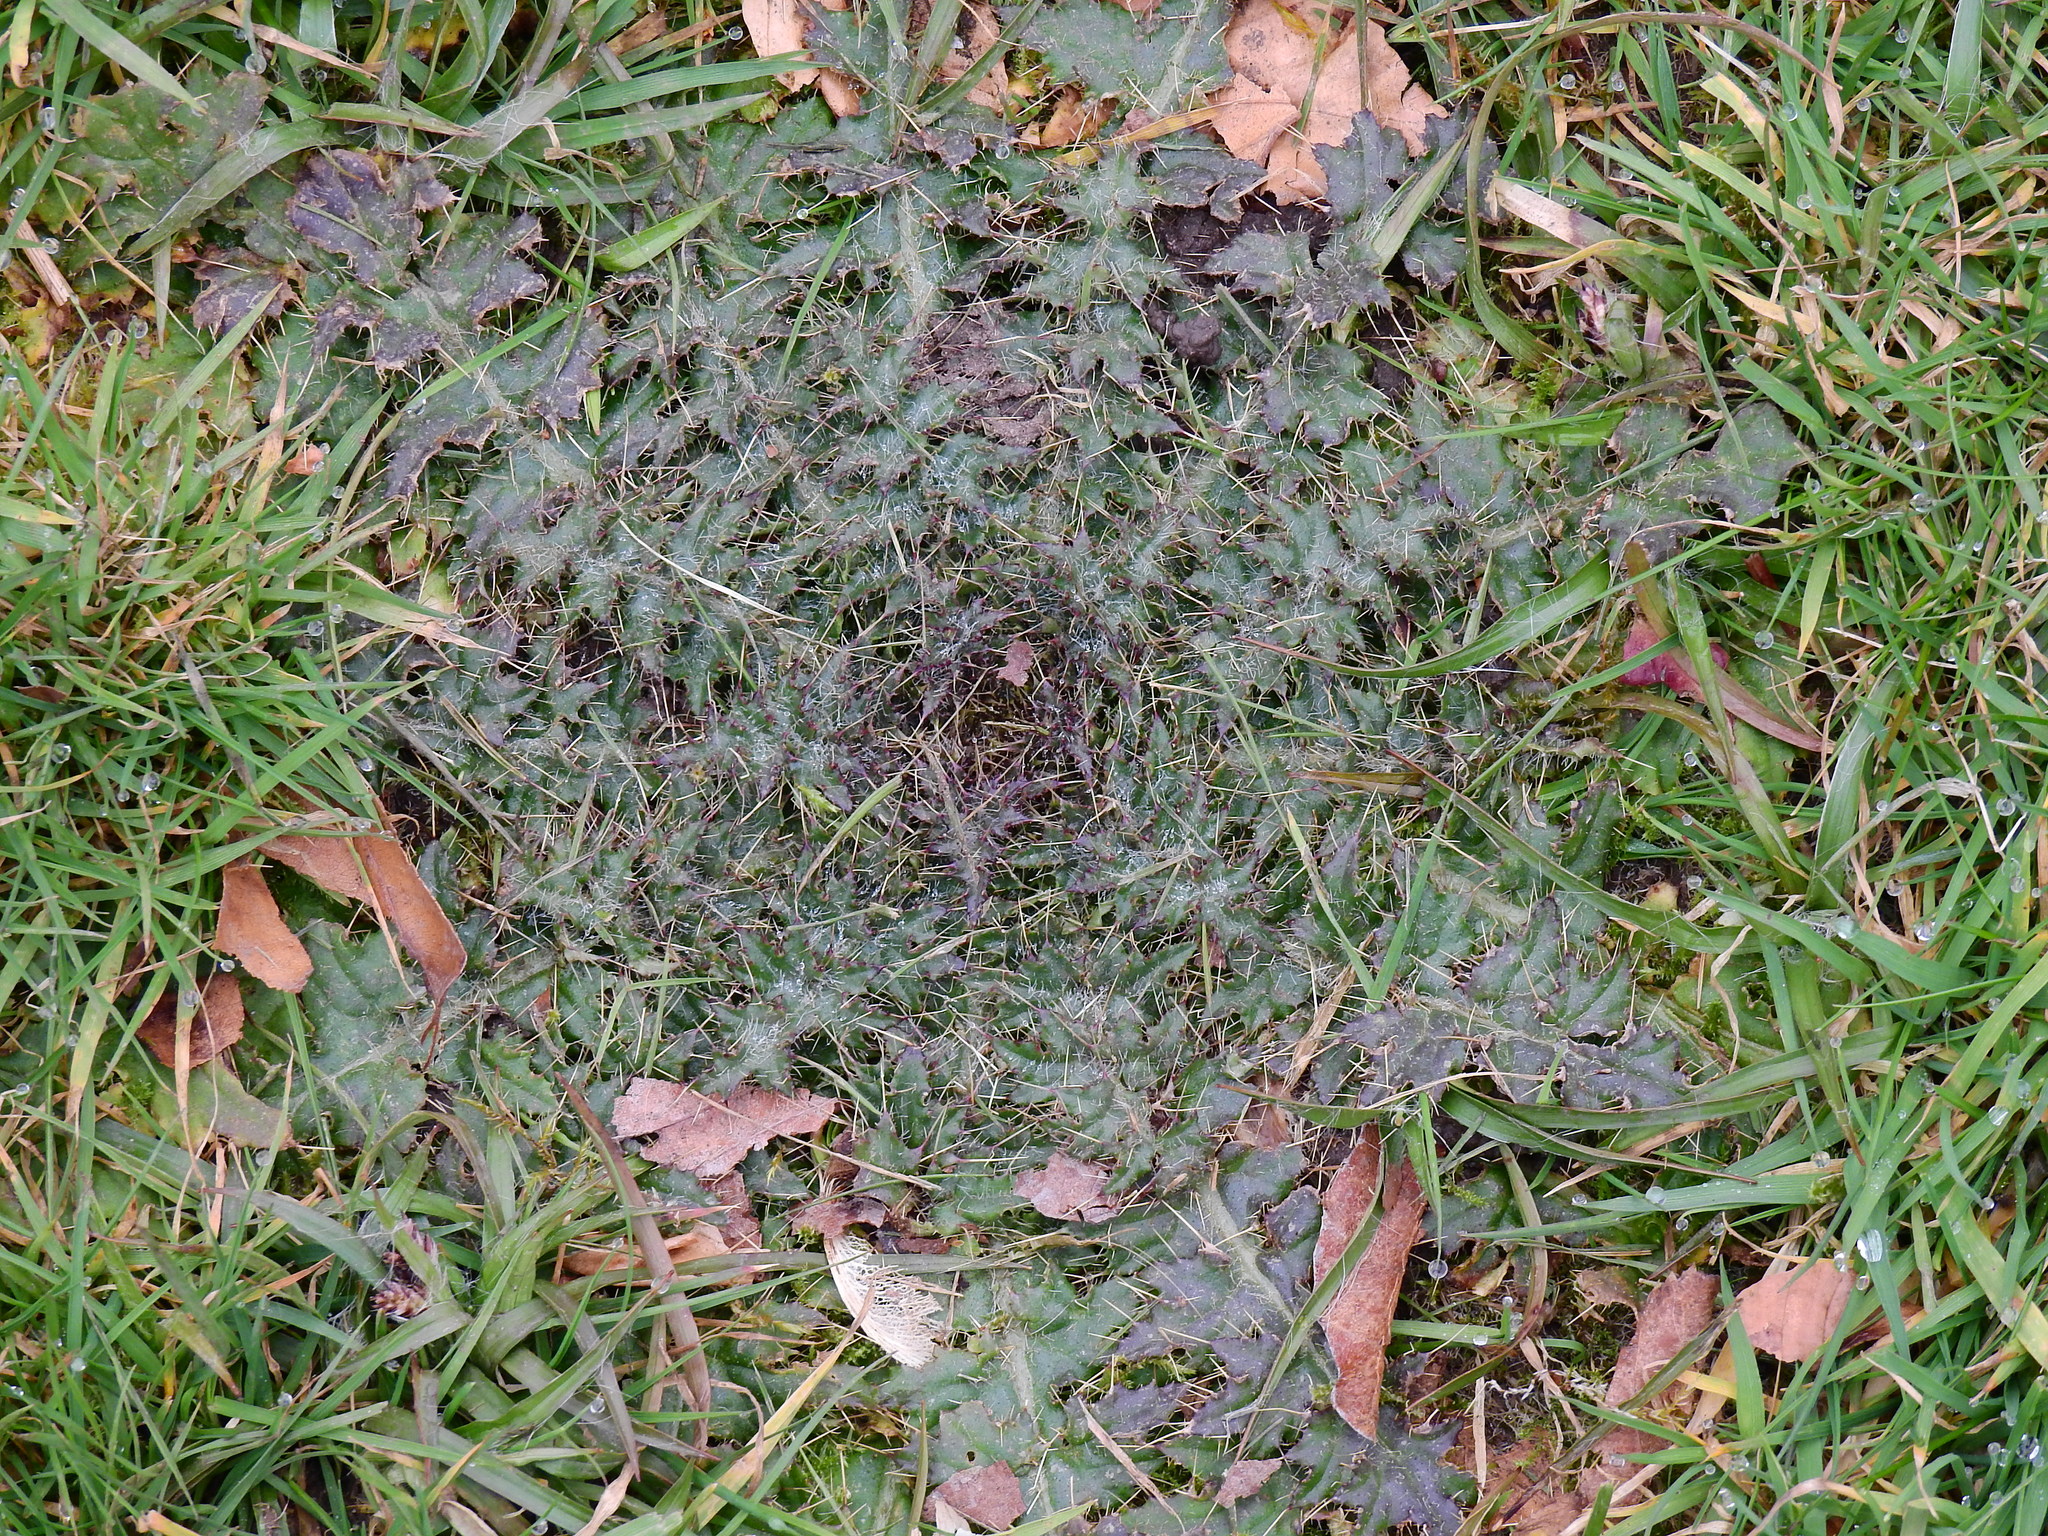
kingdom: Plantae
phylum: Tracheophyta
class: Magnoliopsida
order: Asterales
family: Asteraceae
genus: Cirsium
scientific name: Cirsium palustre
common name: Marsh thistle
